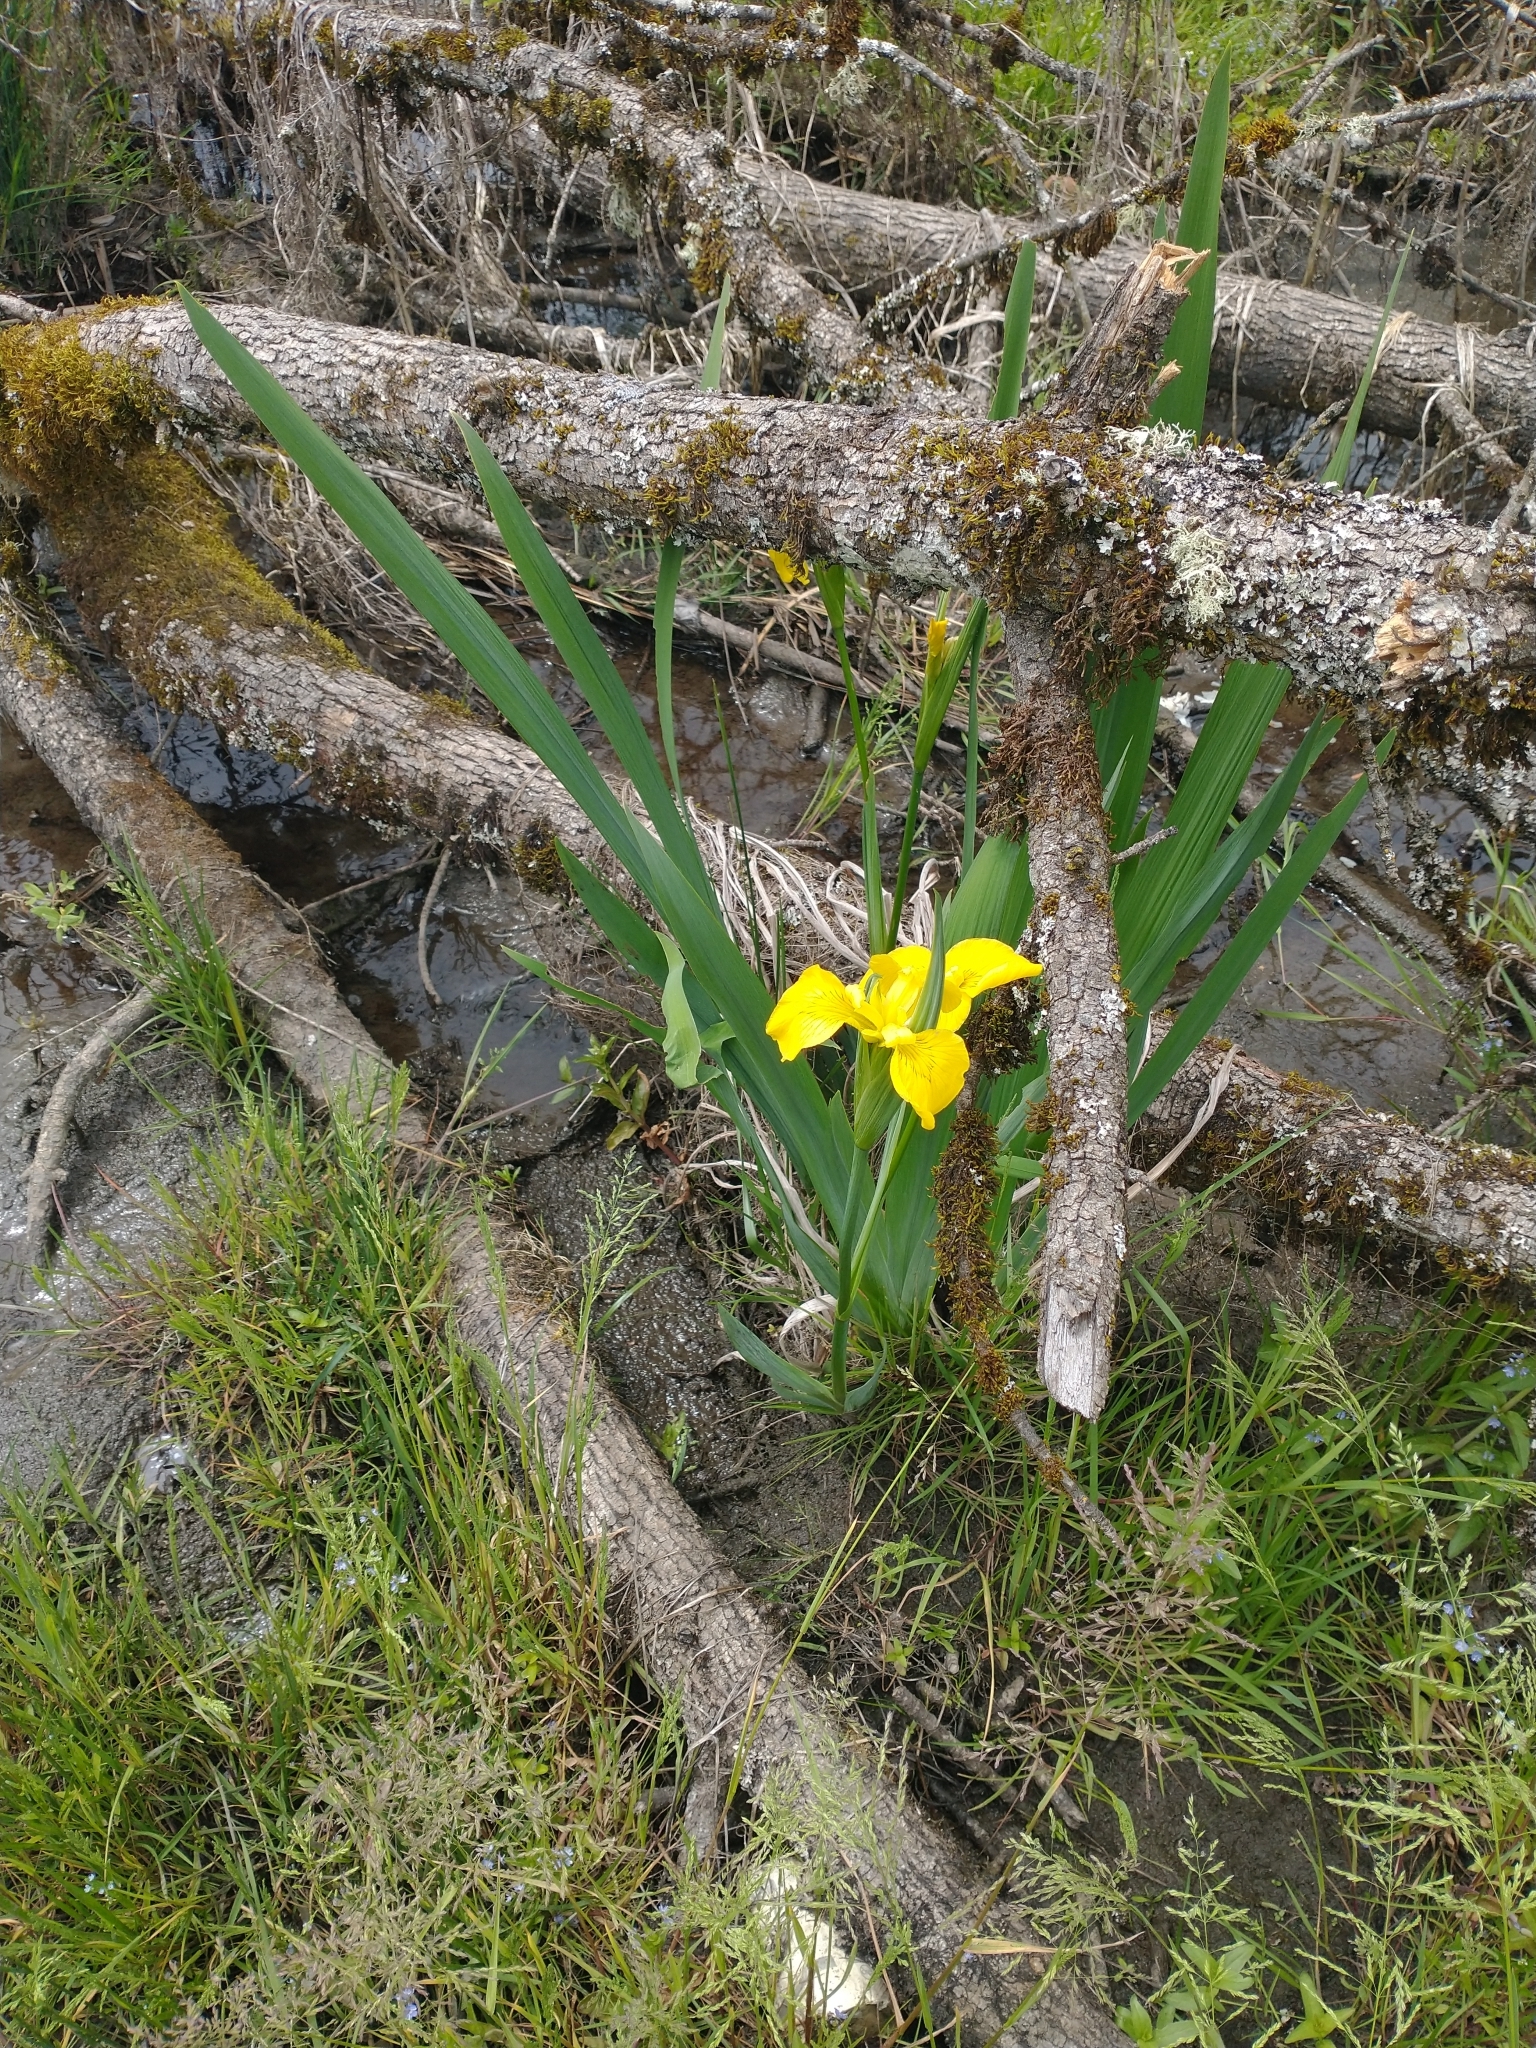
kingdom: Plantae
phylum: Tracheophyta
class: Liliopsida
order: Asparagales
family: Iridaceae
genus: Iris
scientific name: Iris pseudacorus
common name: Yellow flag
